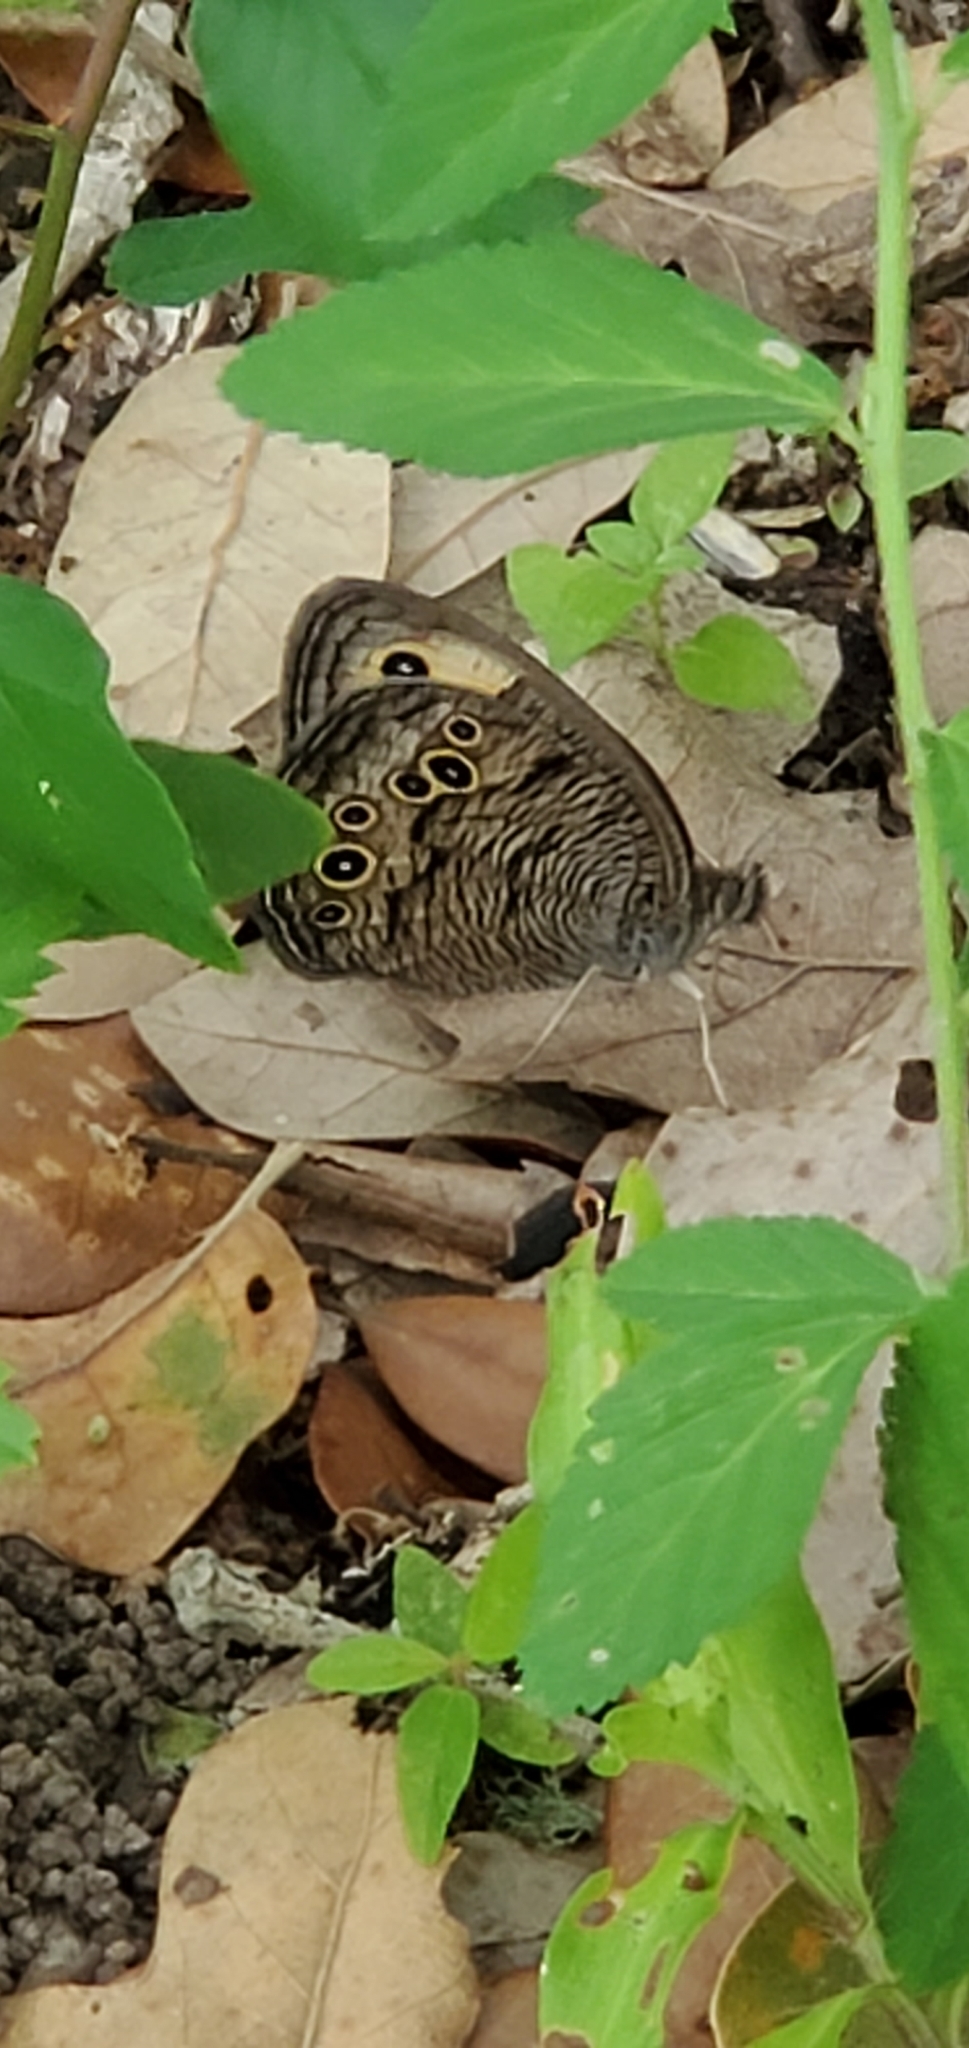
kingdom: Animalia
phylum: Arthropoda
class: Insecta
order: Lepidoptera
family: Nymphalidae
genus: Cercyonis
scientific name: Cercyonis pegala
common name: Common wood-nymph
